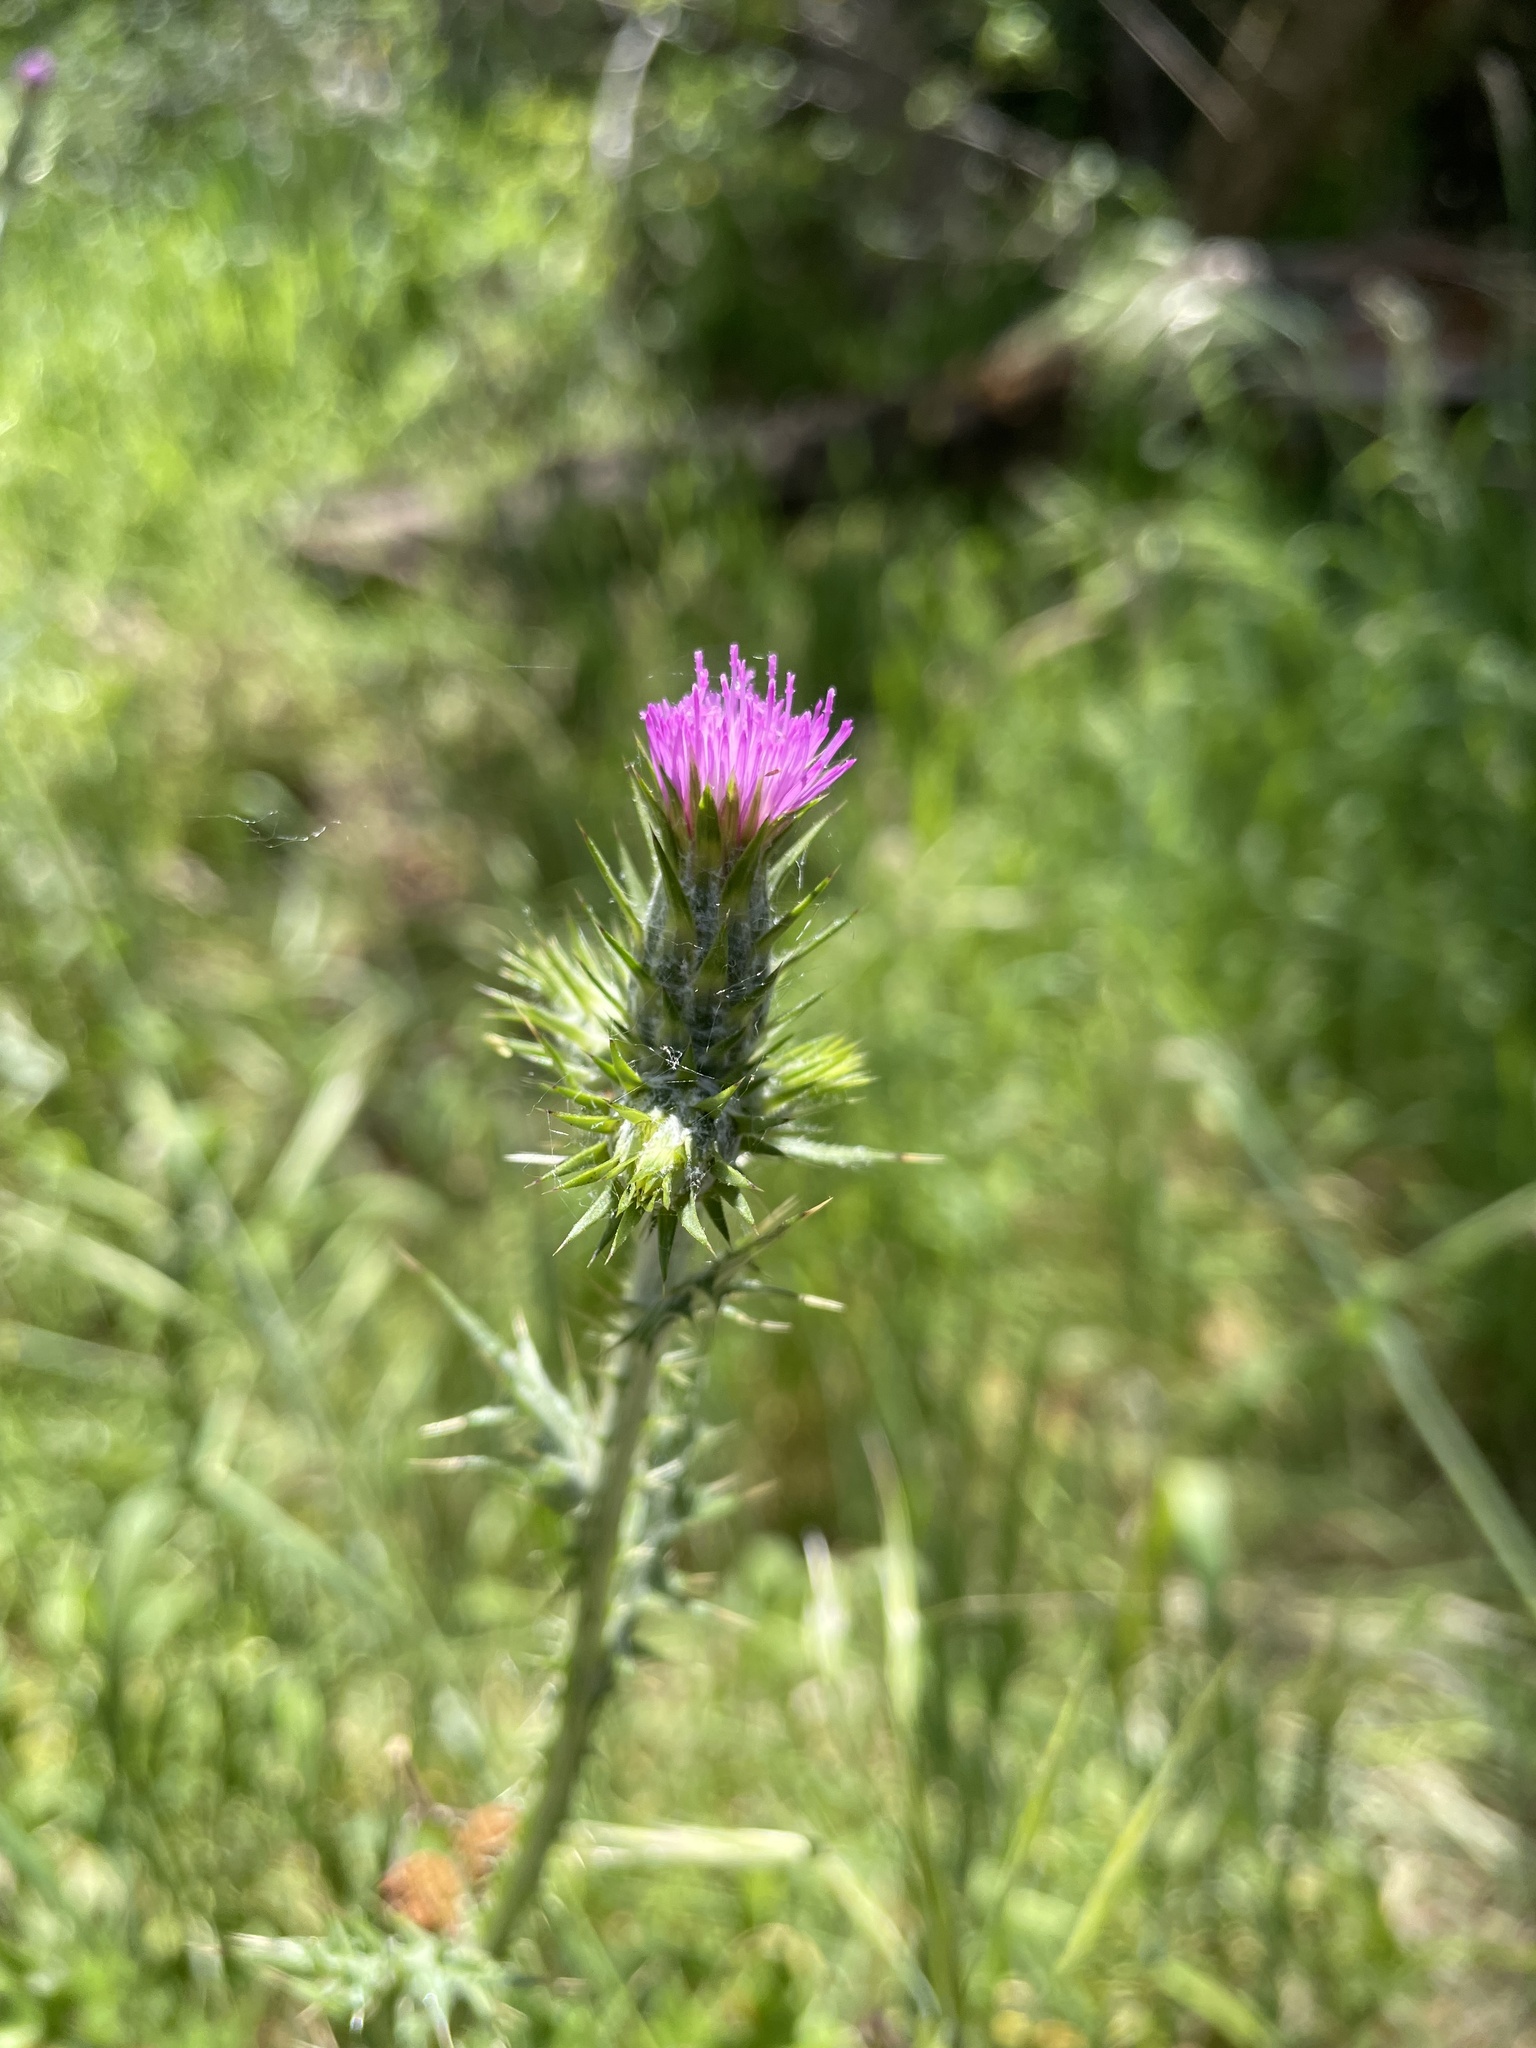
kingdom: Plantae
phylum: Tracheophyta
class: Magnoliopsida
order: Asterales
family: Asteraceae
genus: Carduus
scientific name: Carduus pycnocephalus
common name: Plymouth thistle
